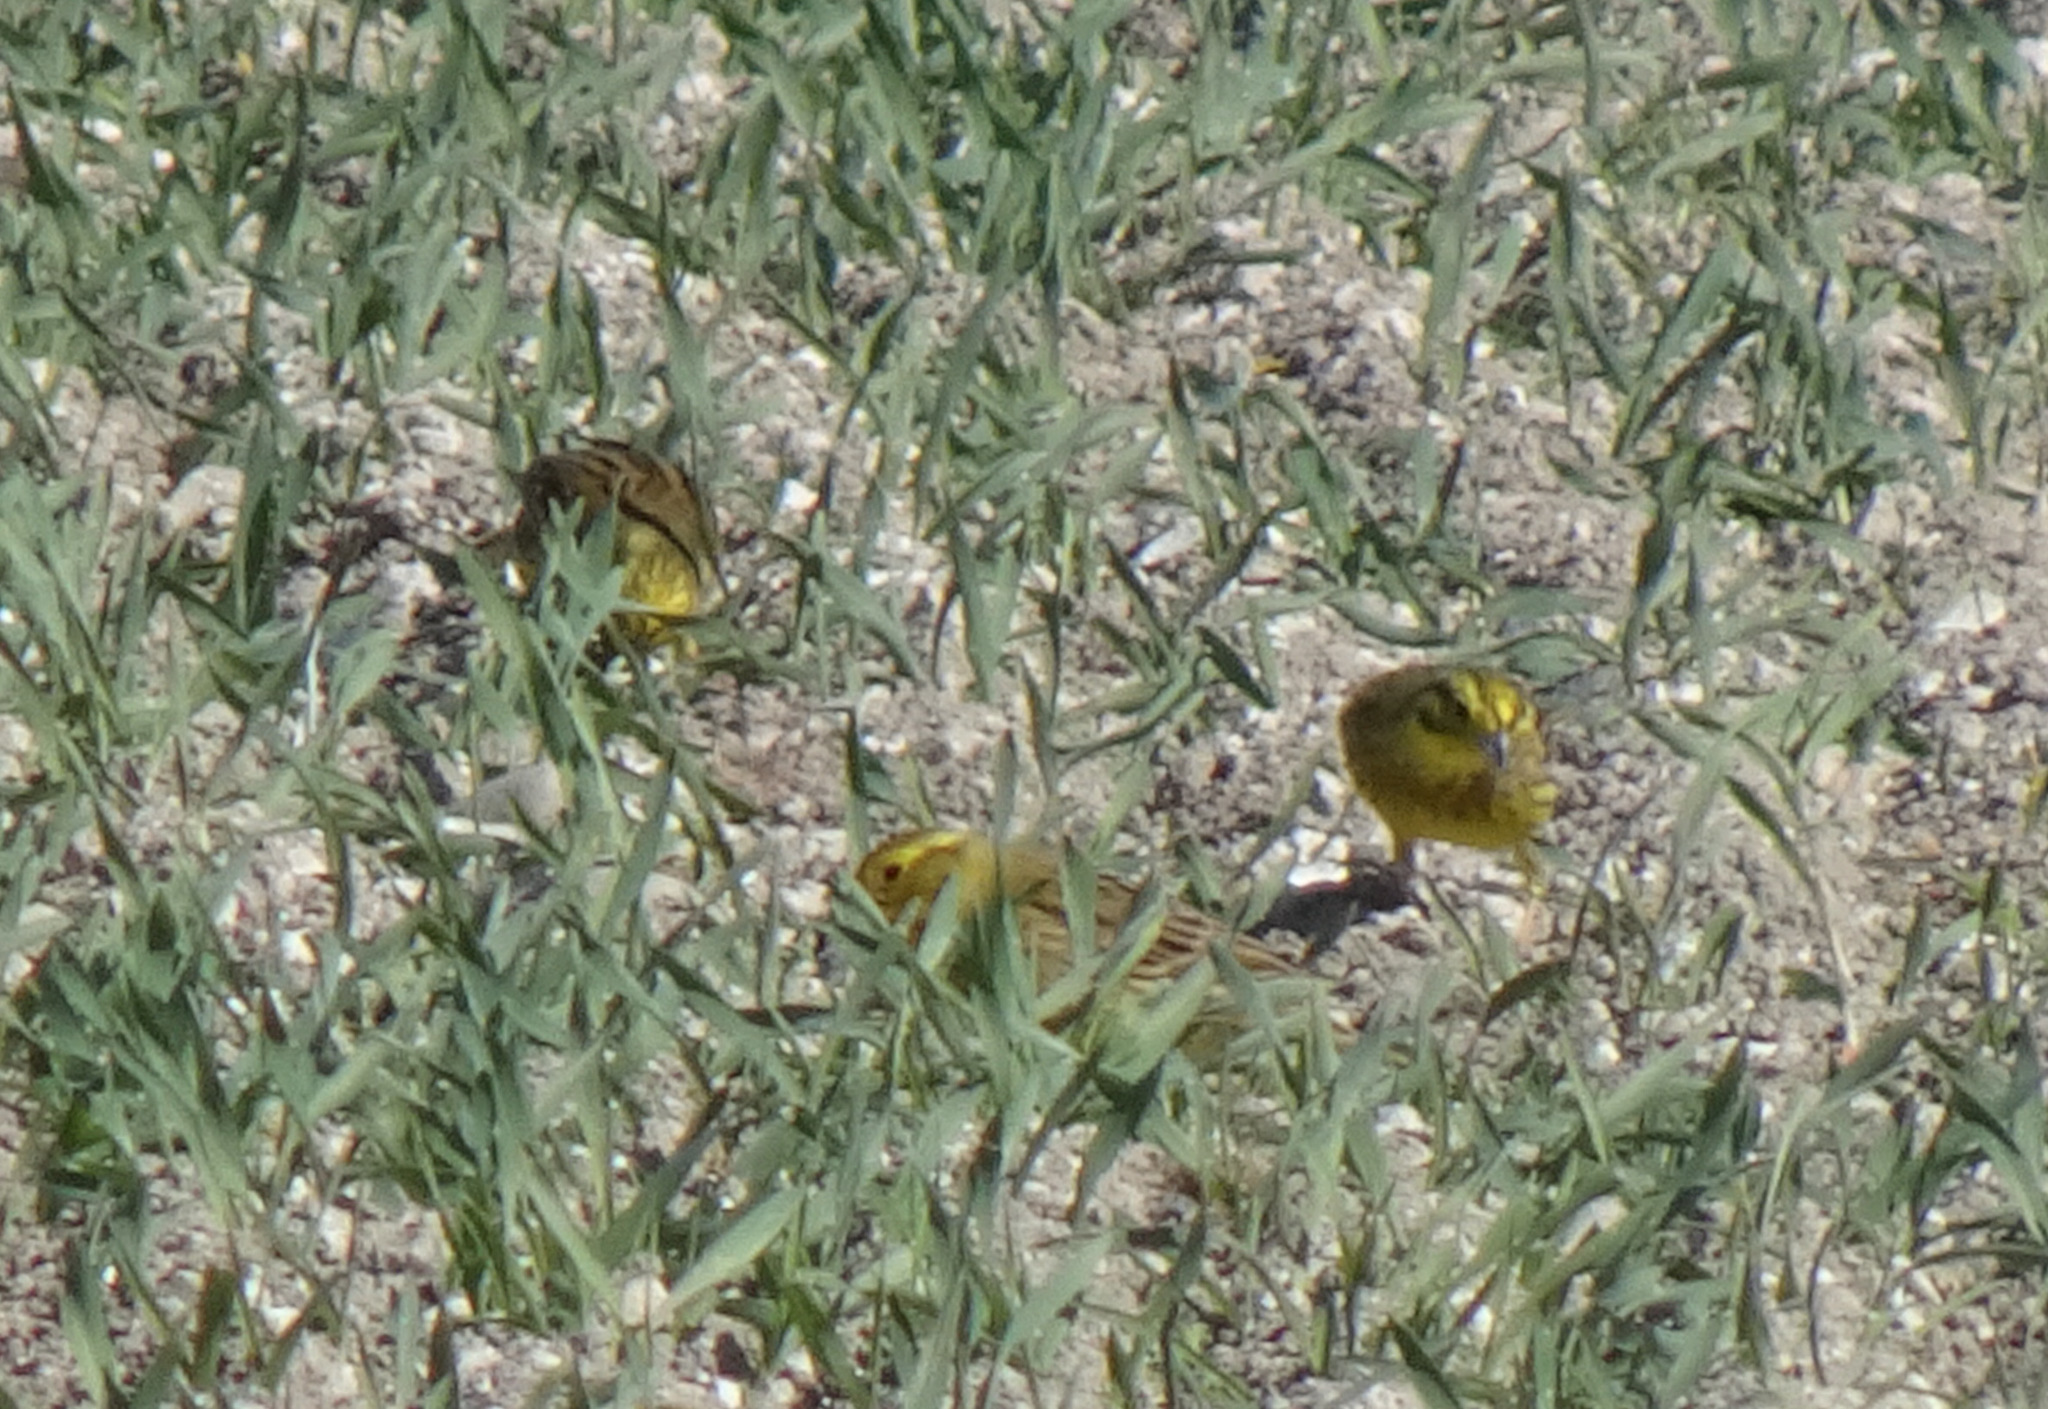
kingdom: Animalia
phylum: Chordata
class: Aves
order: Passeriformes
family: Emberizidae
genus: Emberiza
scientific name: Emberiza citrinella
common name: Yellowhammer
